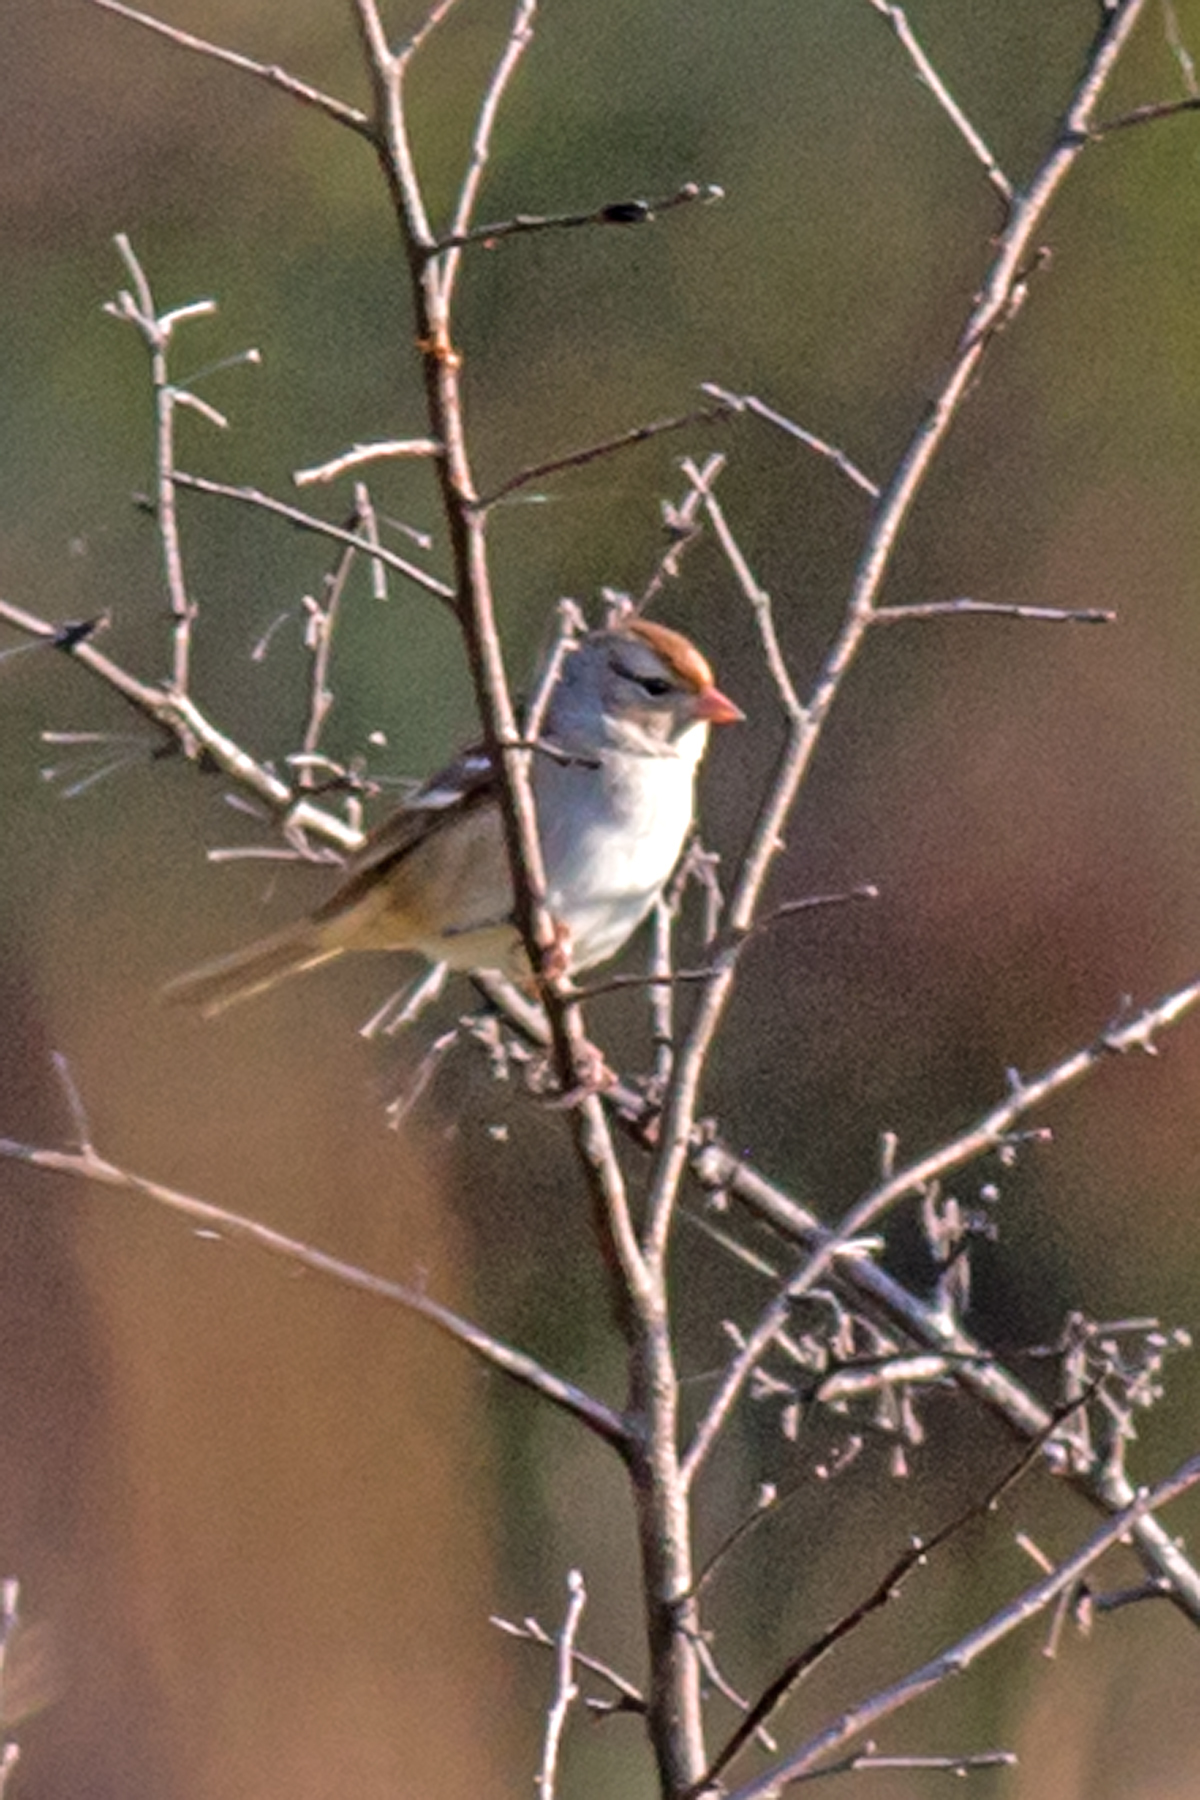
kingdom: Animalia
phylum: Chordata
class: Aves
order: Passeriformes
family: Passerellidae
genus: Zonotrichia
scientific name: Zonotrichia leucophrys
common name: White-crowned sparrow
